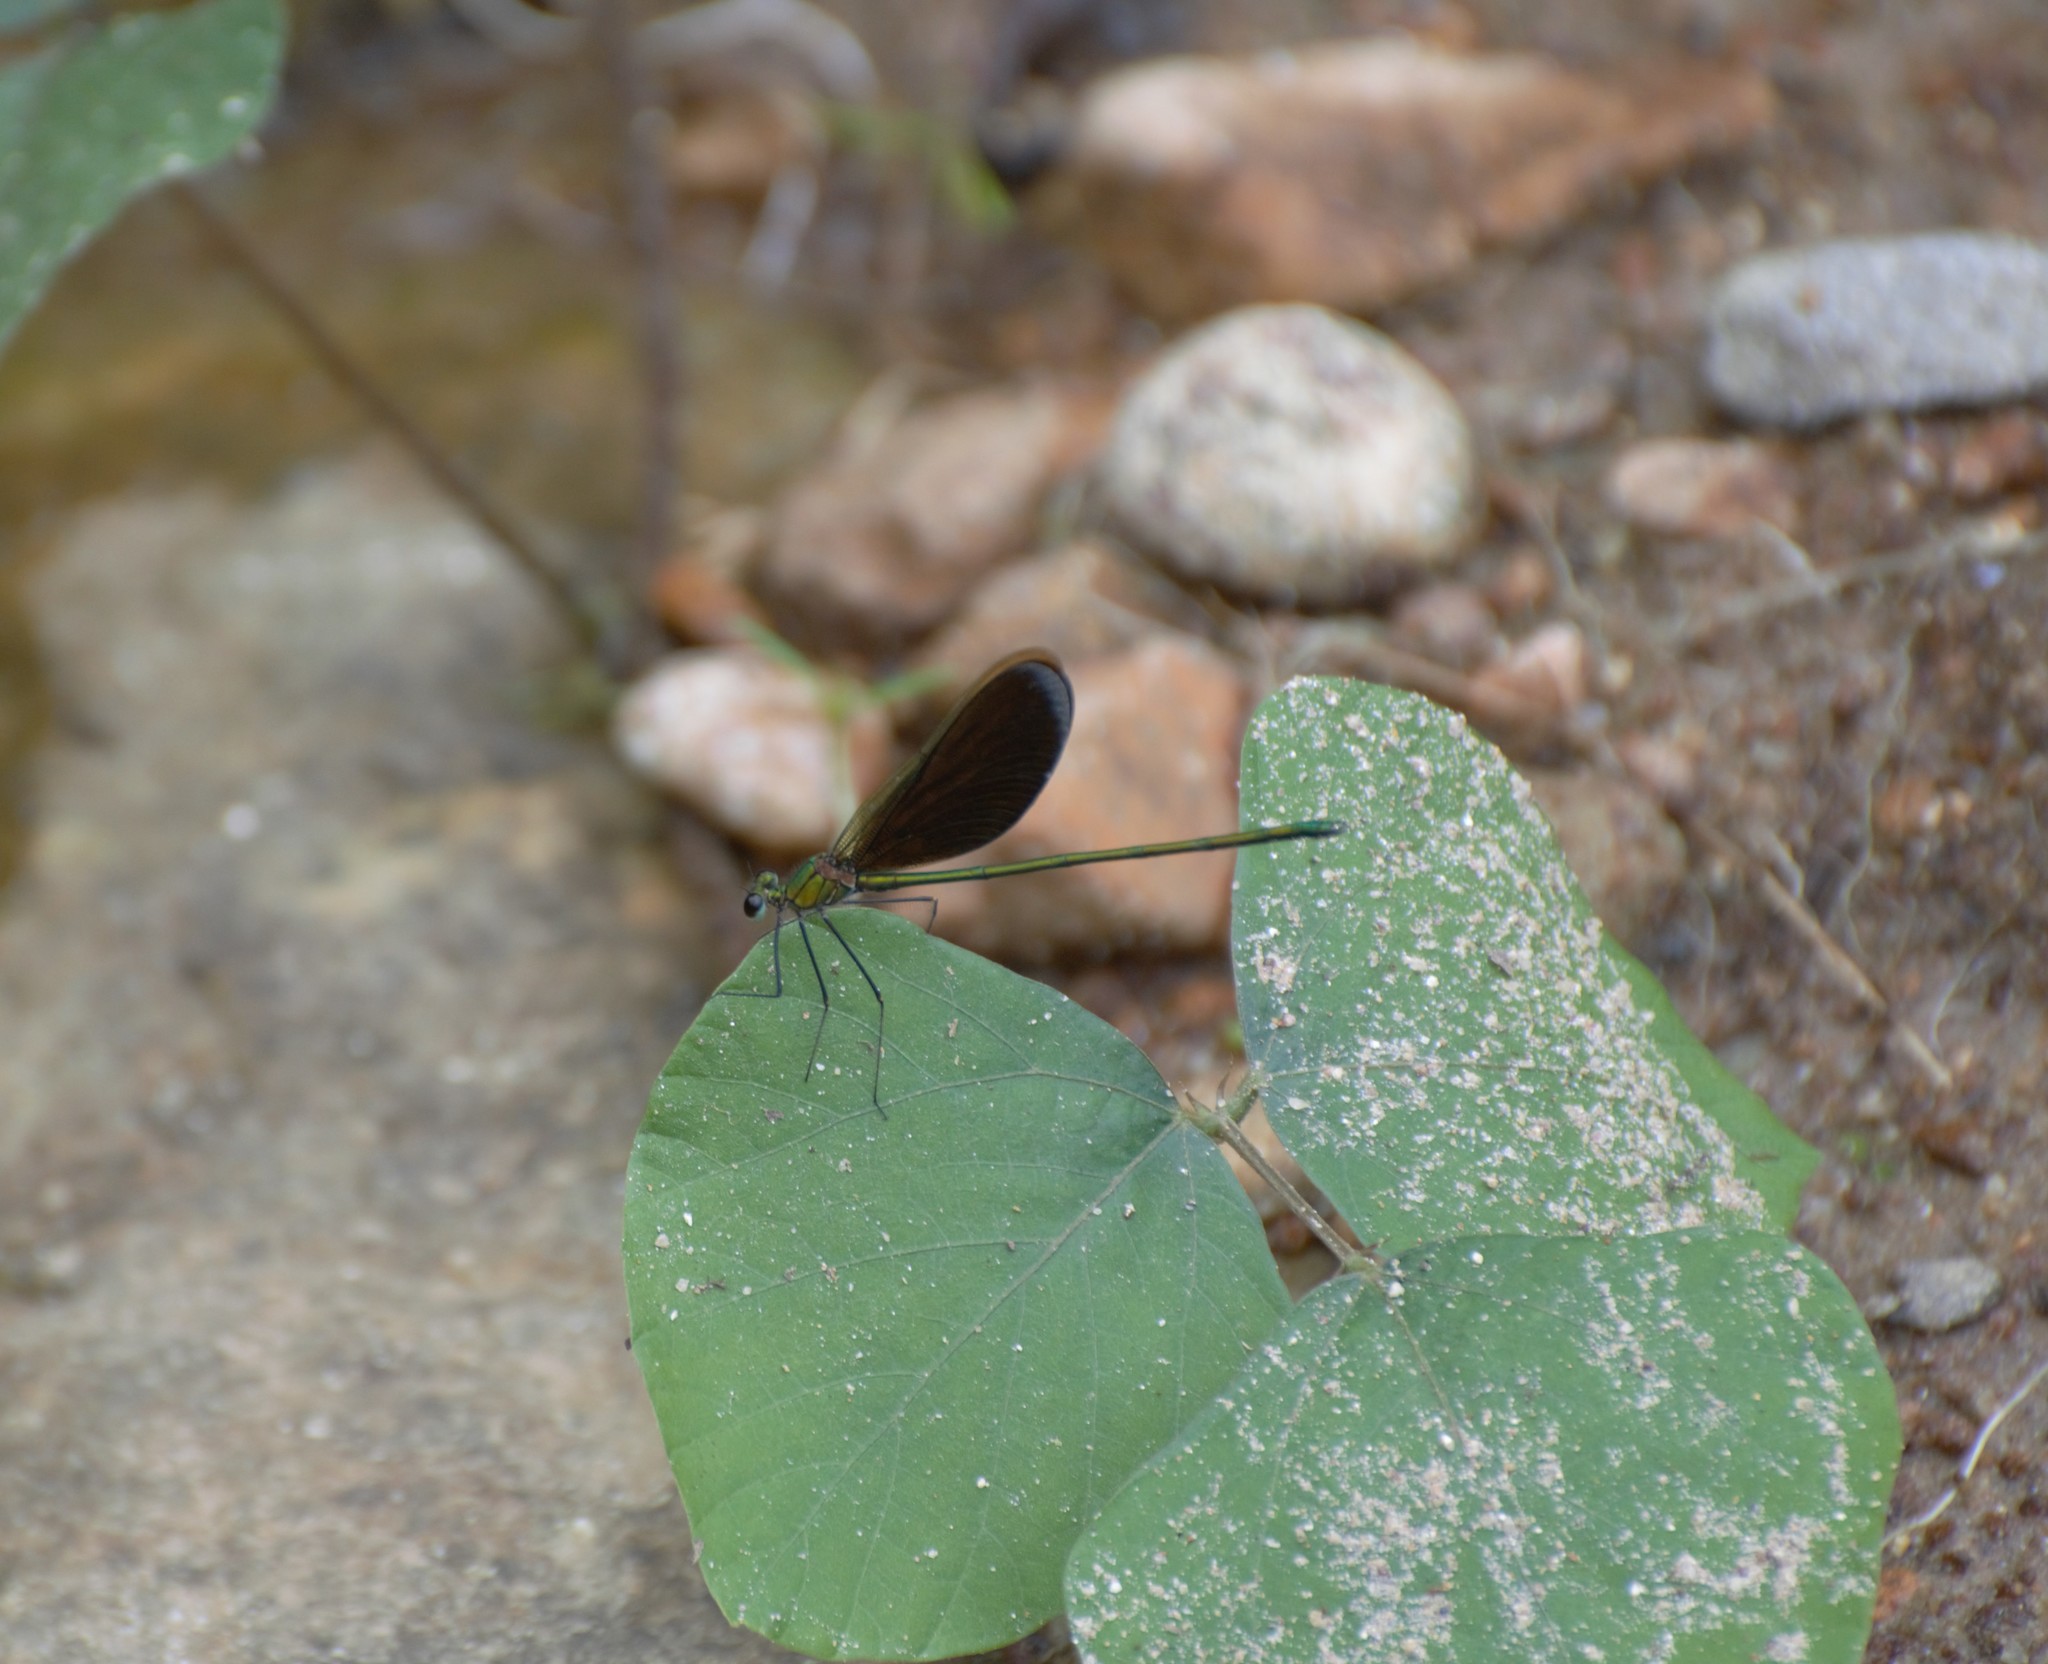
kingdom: Animalia
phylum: Arthropoda
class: Insecta
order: Odonata
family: Calopterygidae
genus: Neurobasis
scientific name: Neurobasis chinensis
